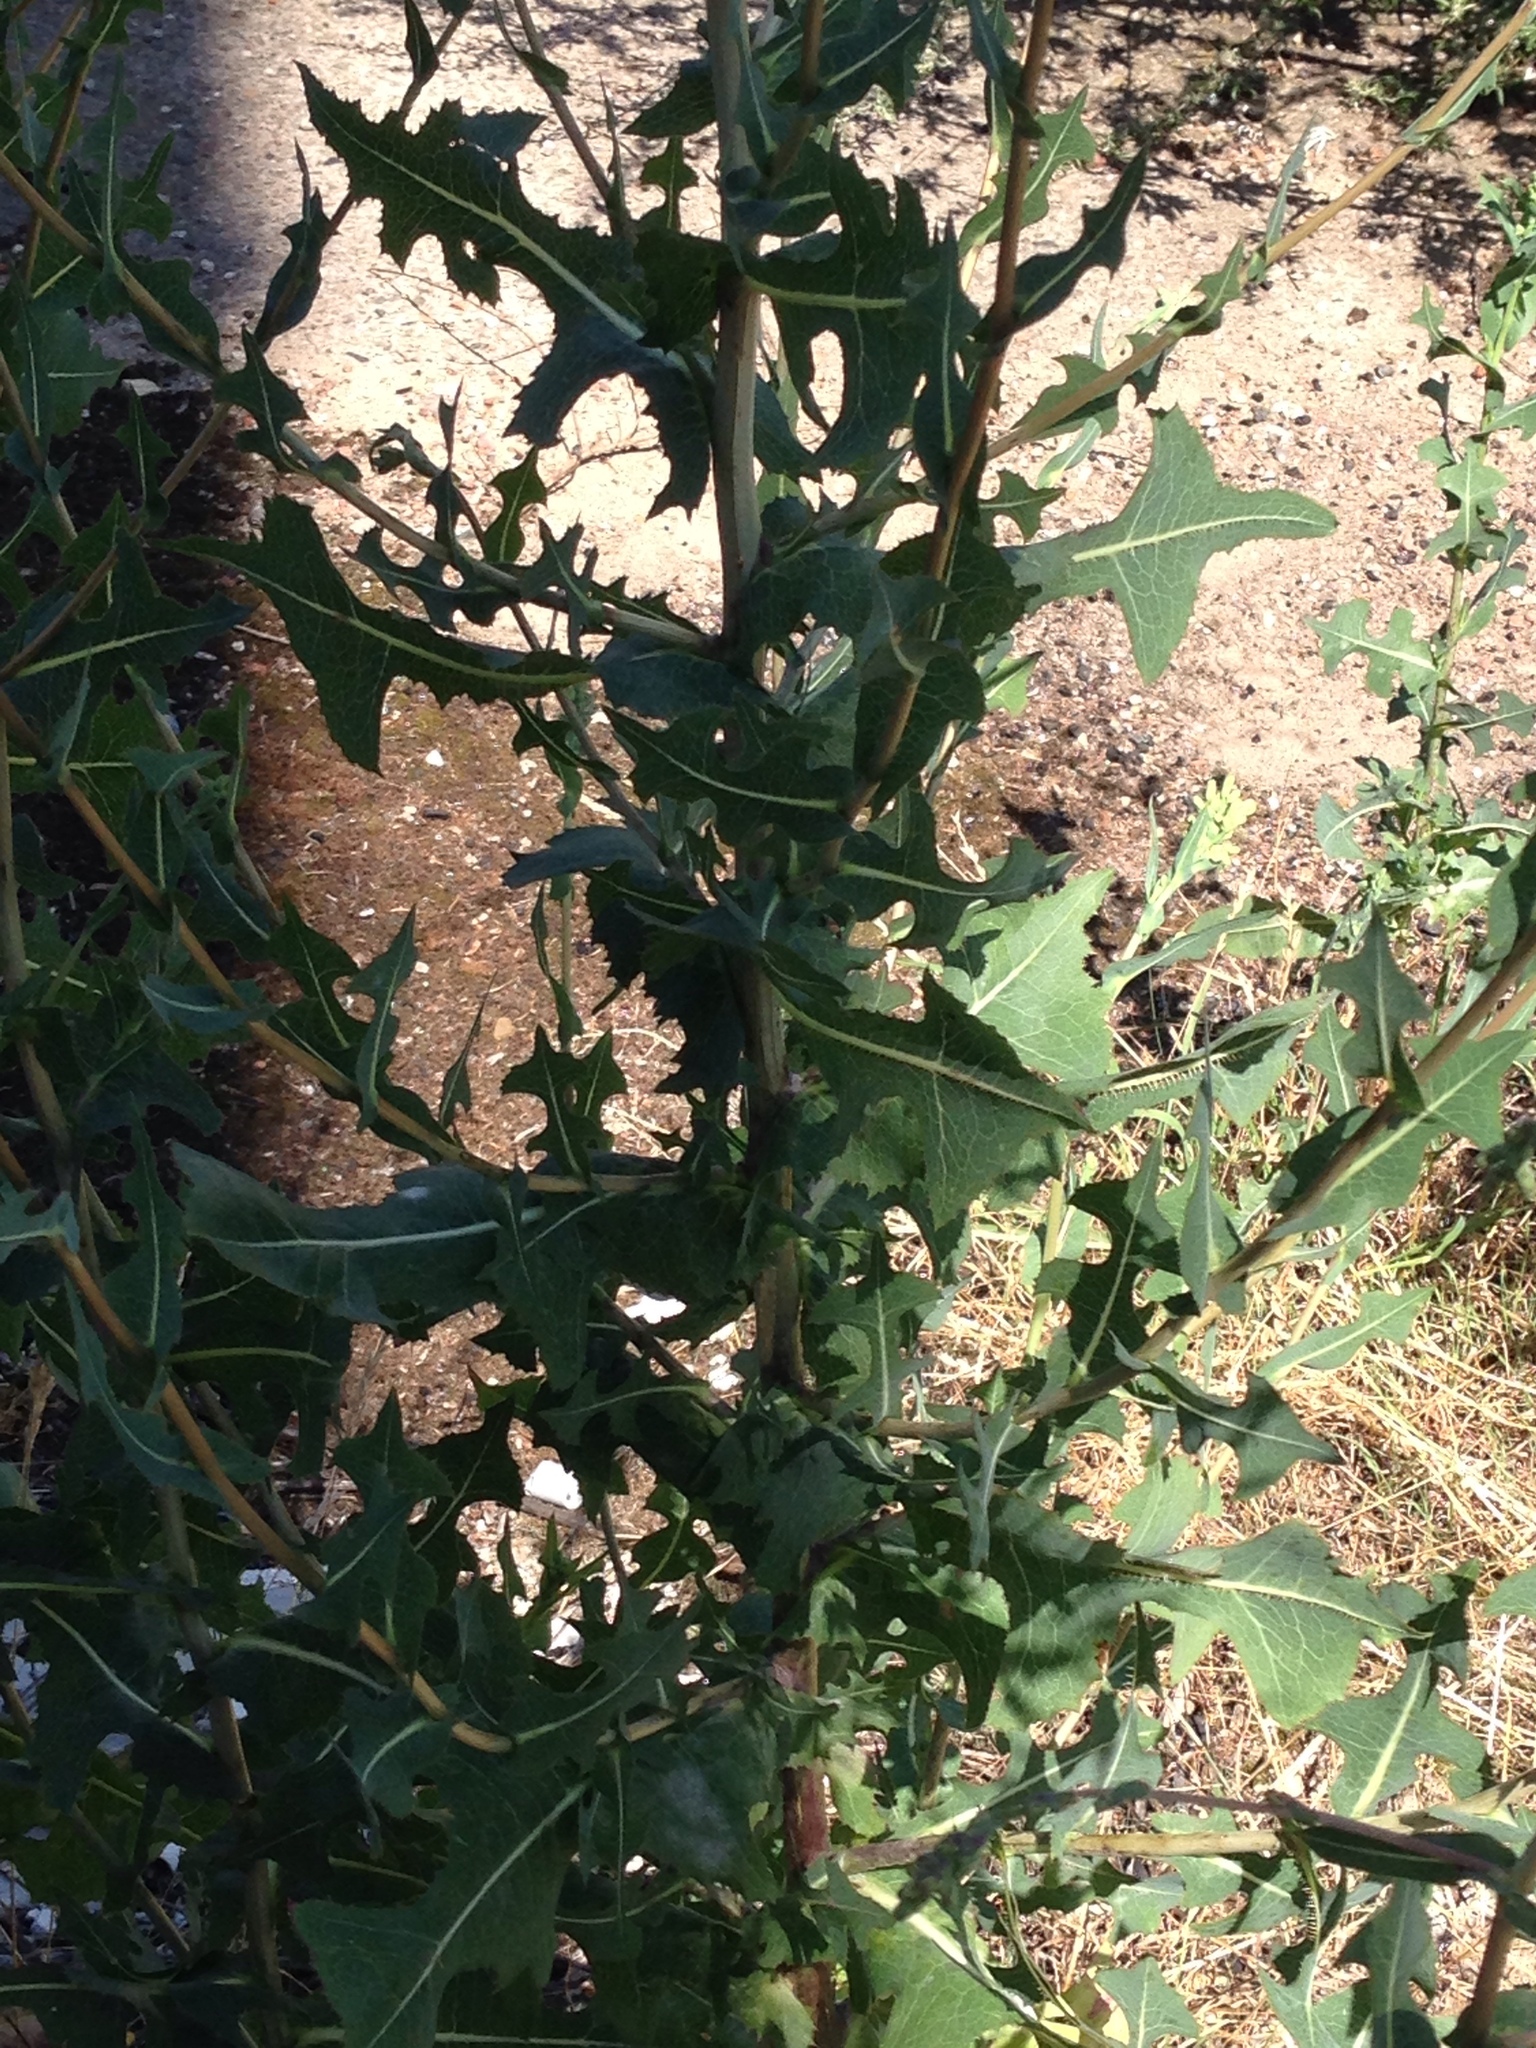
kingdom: Plantae
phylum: Tracheophyta
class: Magnoliopsida
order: Asterales
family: Asteraceae
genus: Lactuca
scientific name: Lactuca serriola
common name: Prickly lettuce
